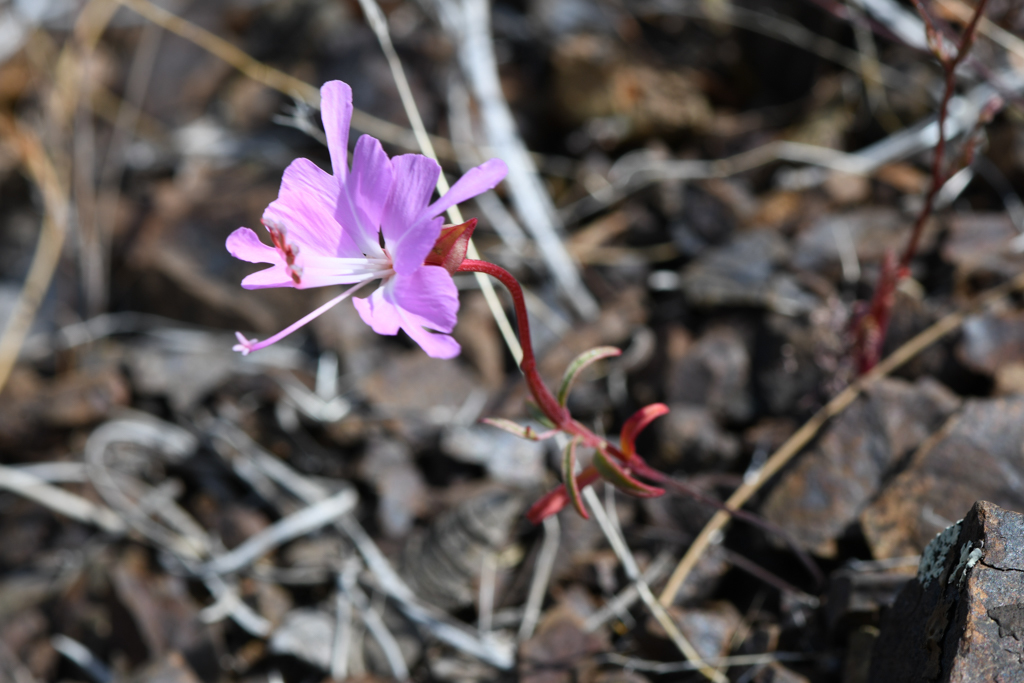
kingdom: Plantae
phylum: Tracheophyta
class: Magnoliopsida
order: Myrtales
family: Onagraceae
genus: Clarkia
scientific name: Clarkia breweri
